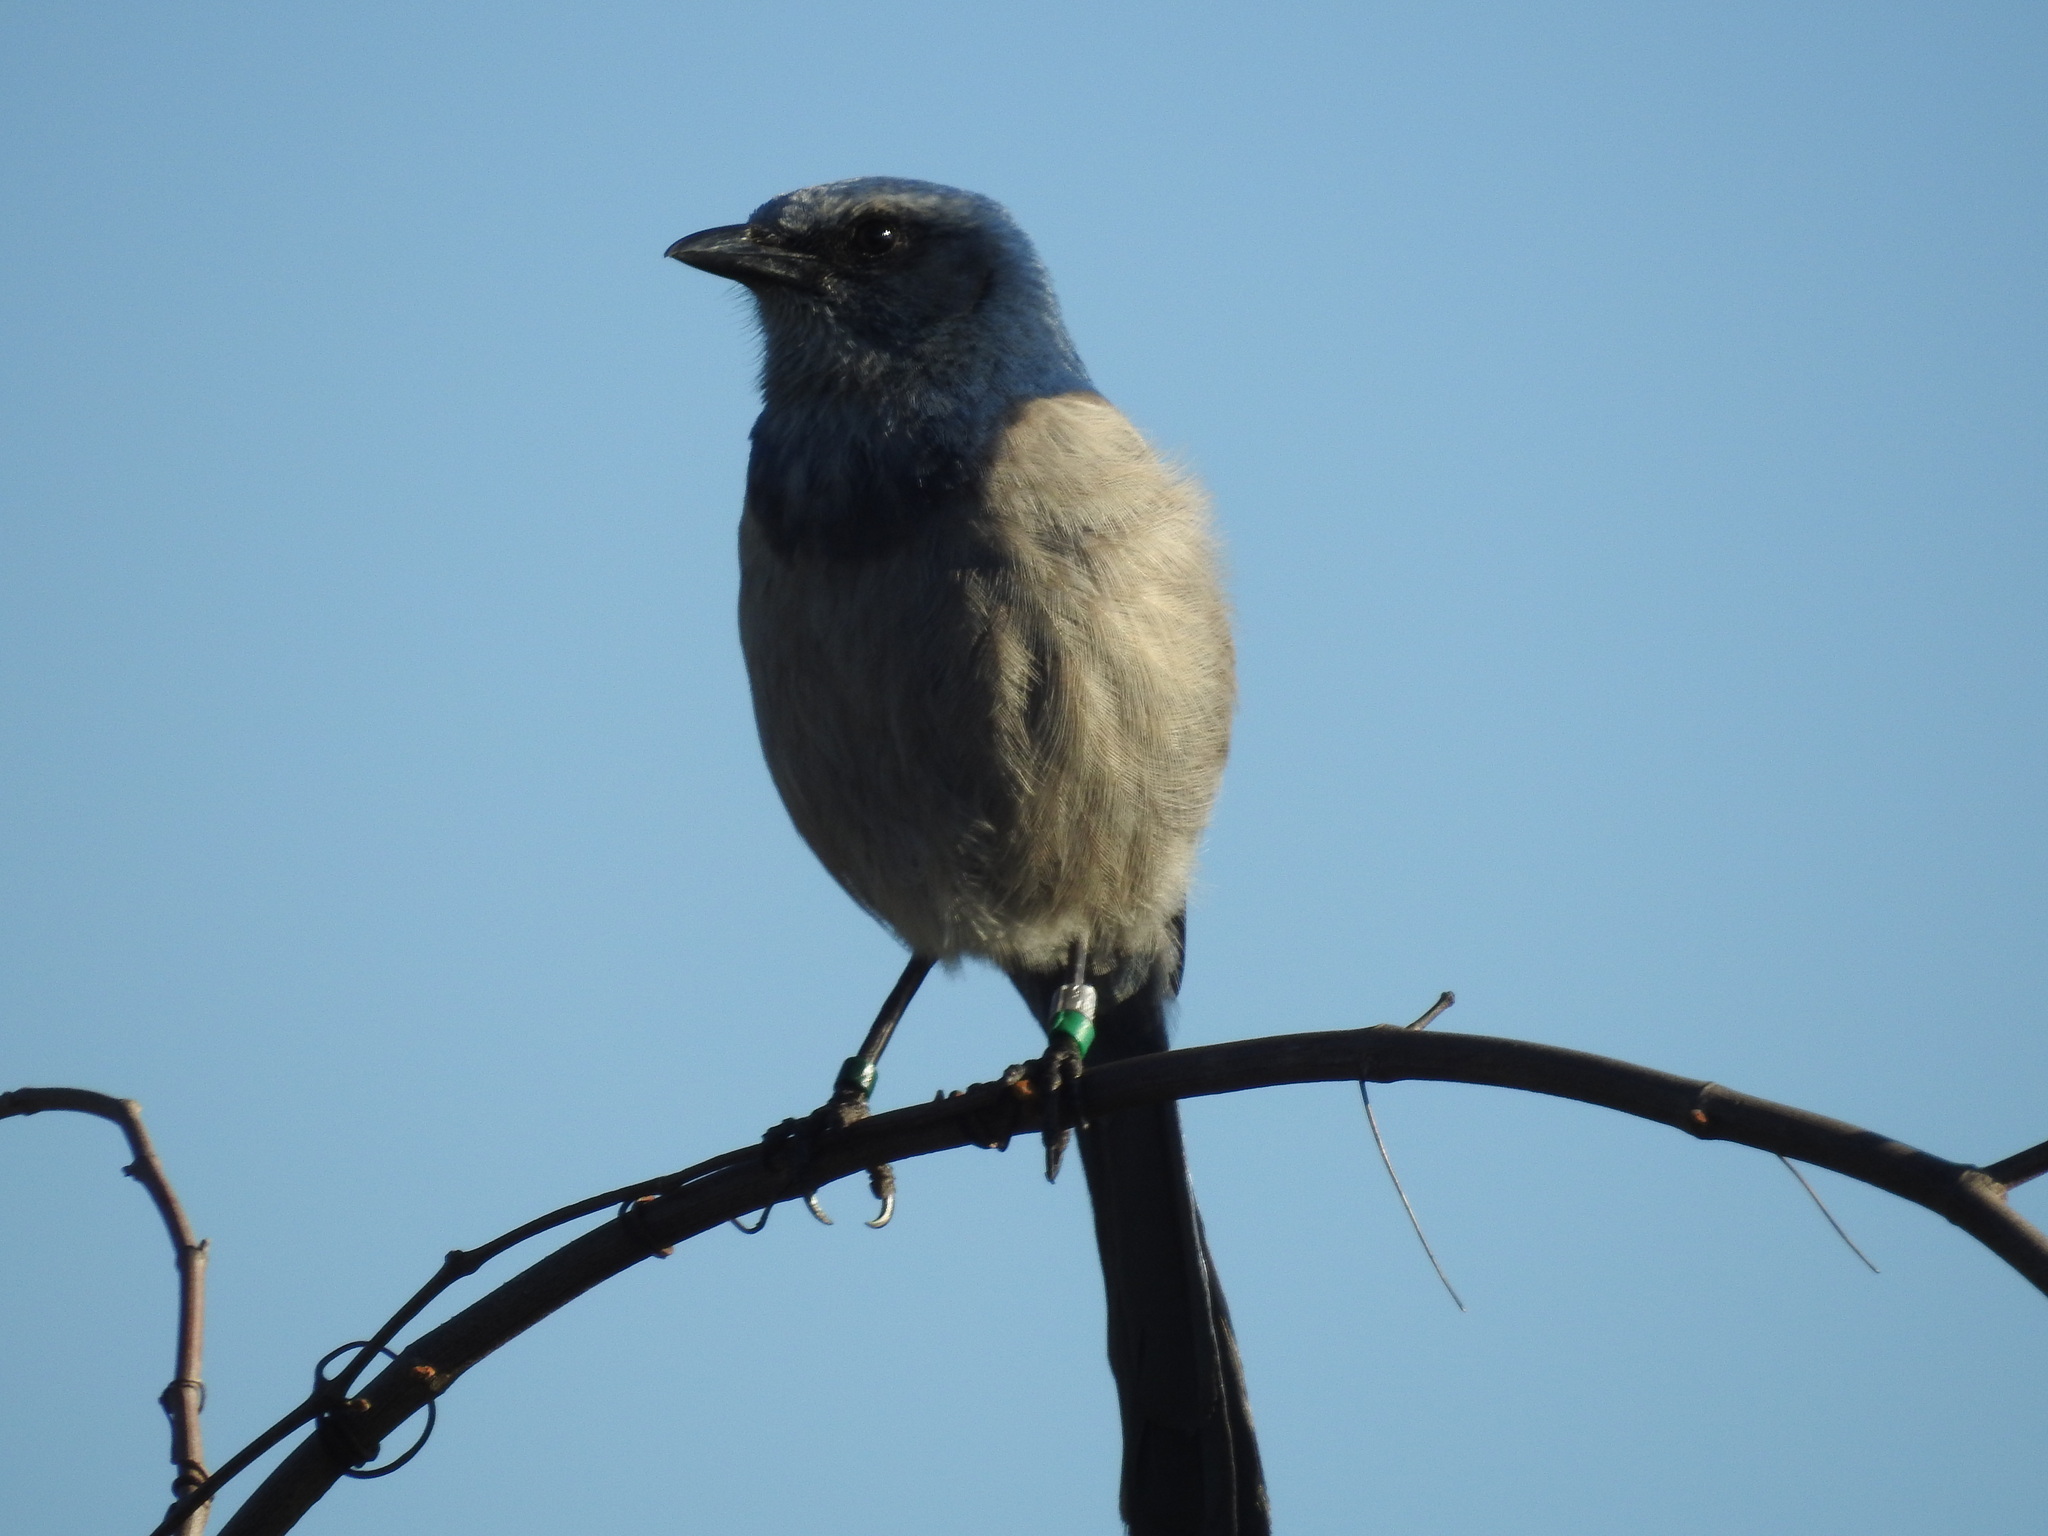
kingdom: Animalia
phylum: Chordata
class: Aves
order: Passeriformes
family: Corvidae
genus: Aphelocoma
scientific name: Aphelocoma coerulescens
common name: Florida scrub jay
